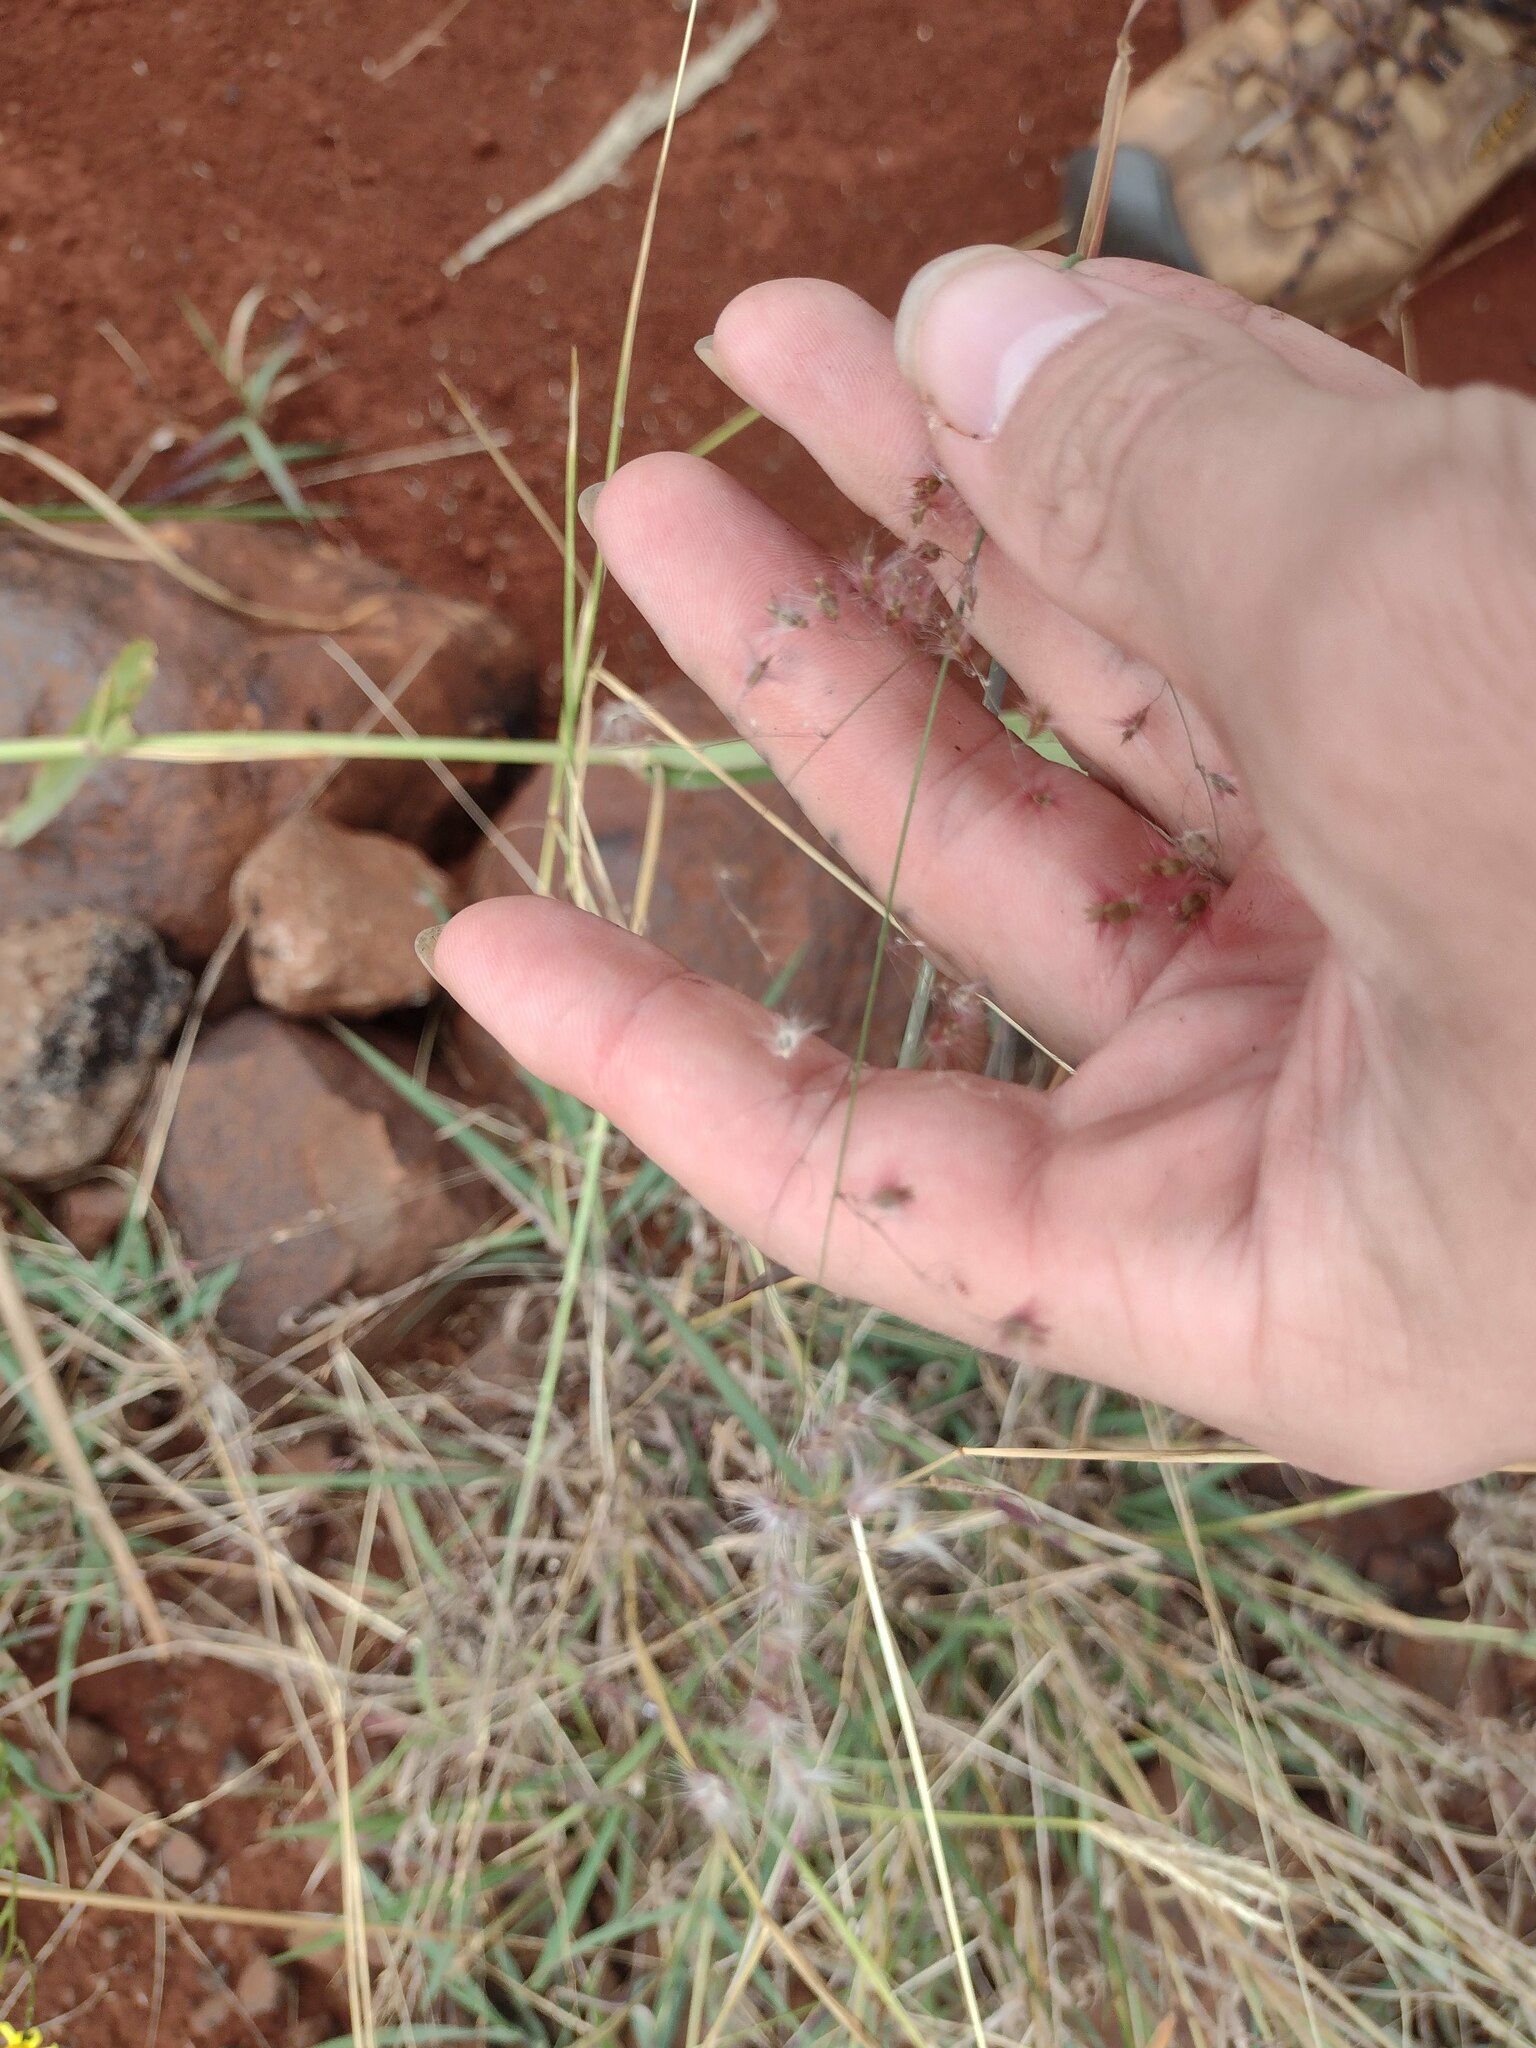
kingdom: Plantae
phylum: Tracheophyta
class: Liliopsida
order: Poales
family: Poaceae
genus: Melinis
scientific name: Melinis repens
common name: Rose natal grass
